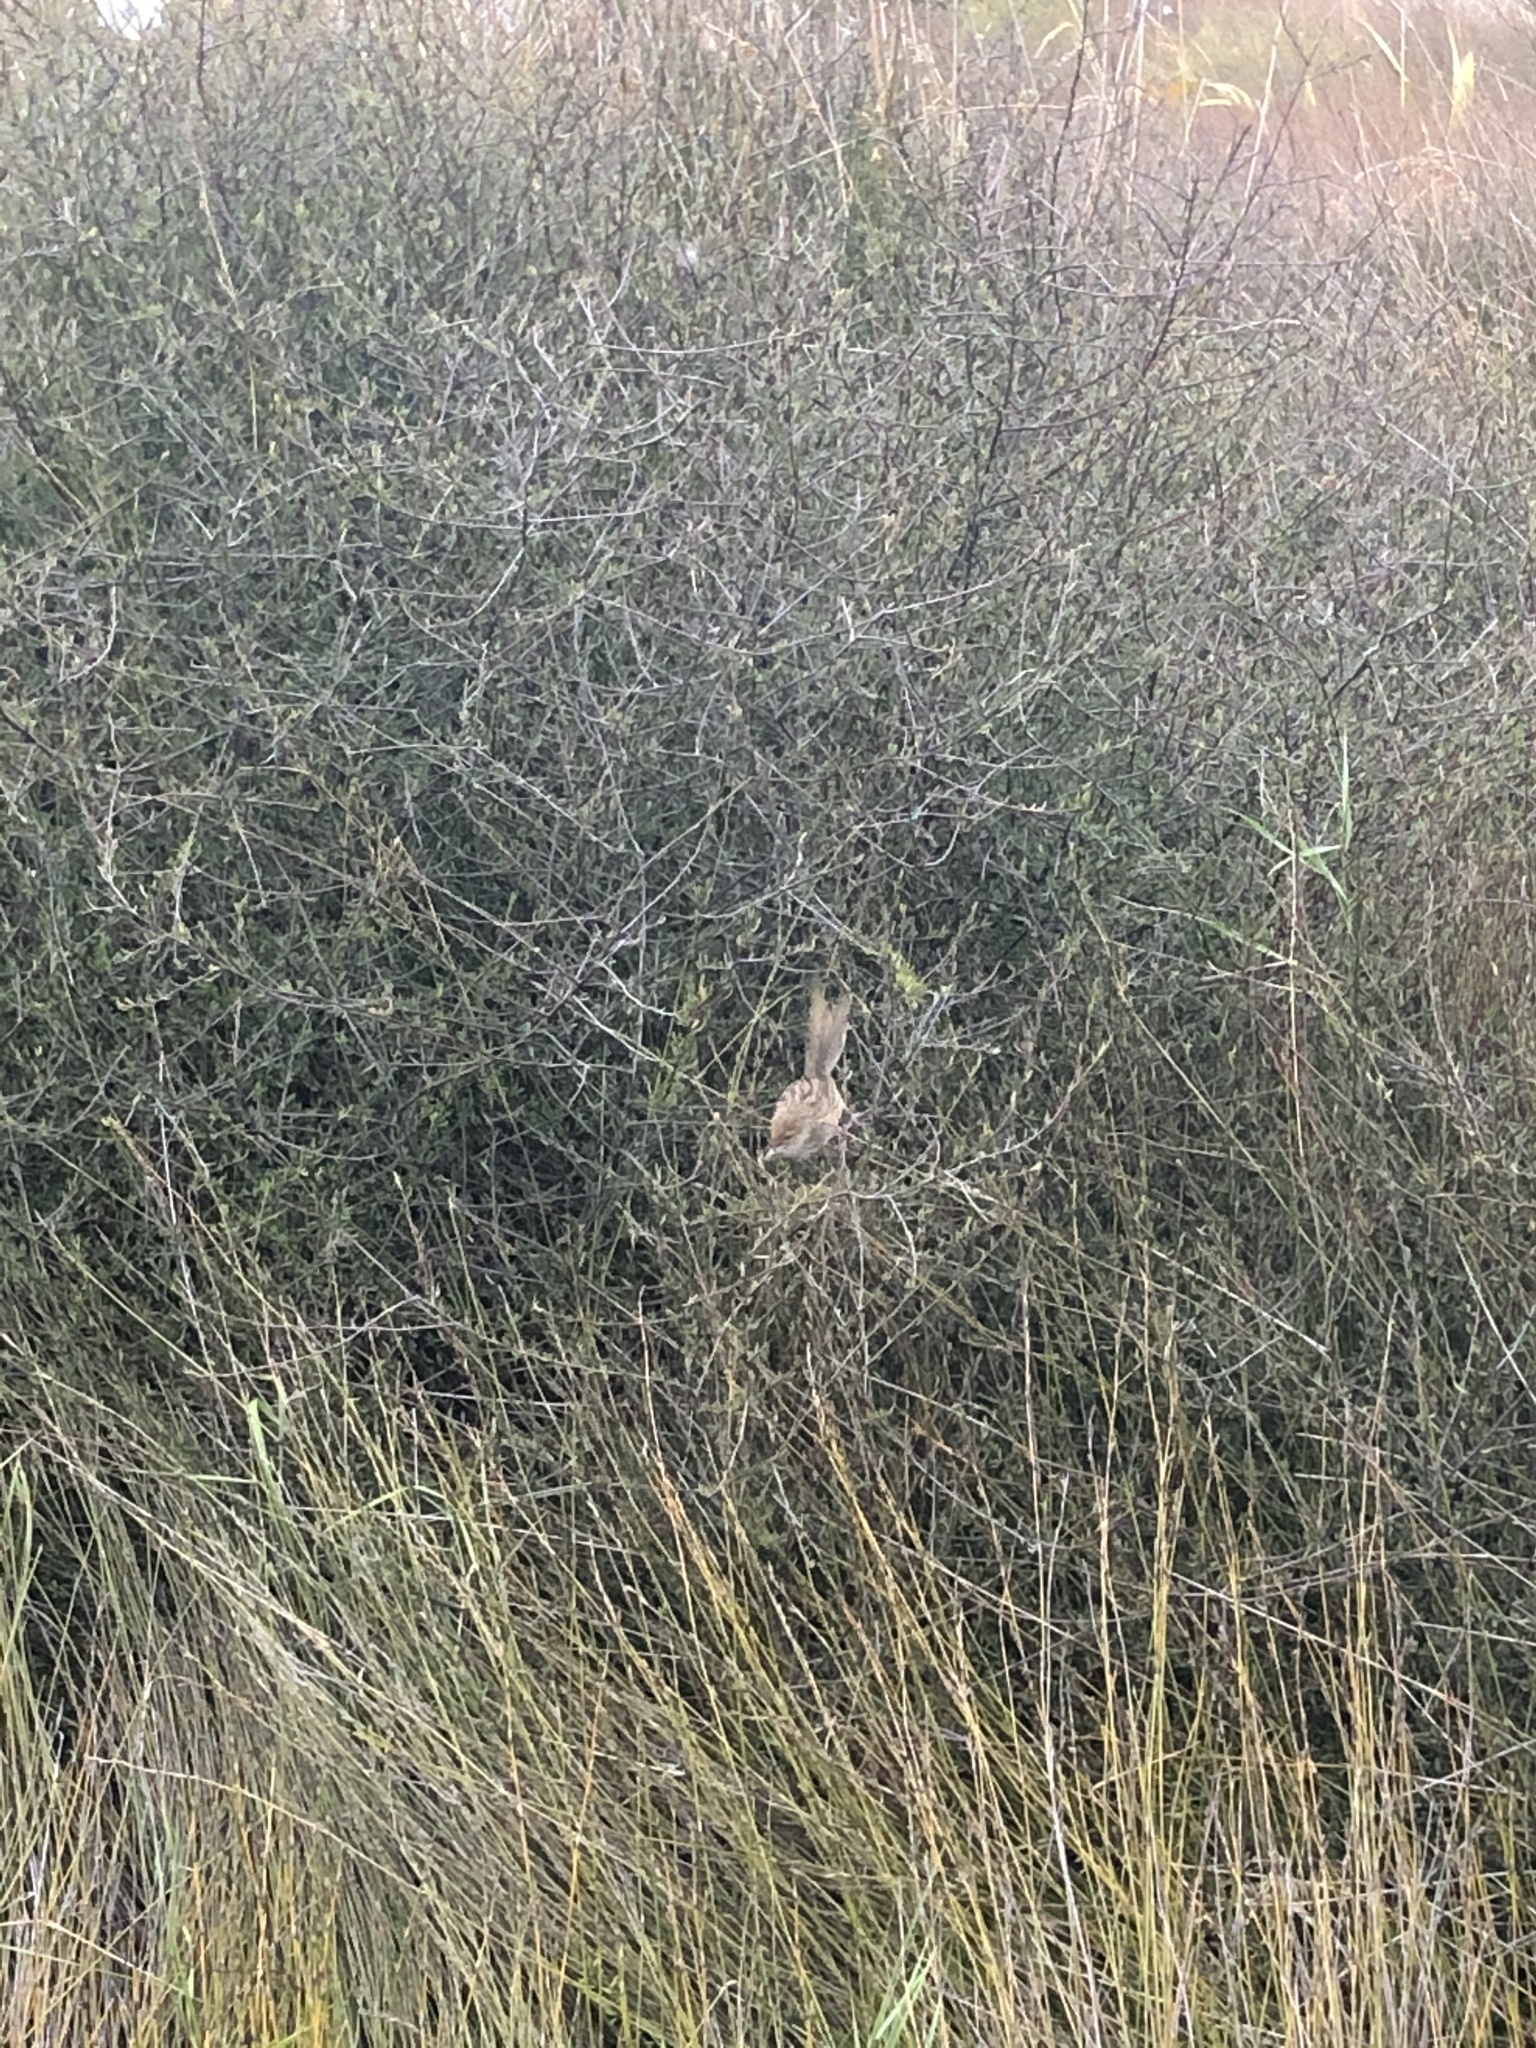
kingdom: Animalia
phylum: Chordata
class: Aves
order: Passeriformes
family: Motacillidae
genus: Anthus
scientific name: Anthus novaeseelandiae
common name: New zealand pipit
